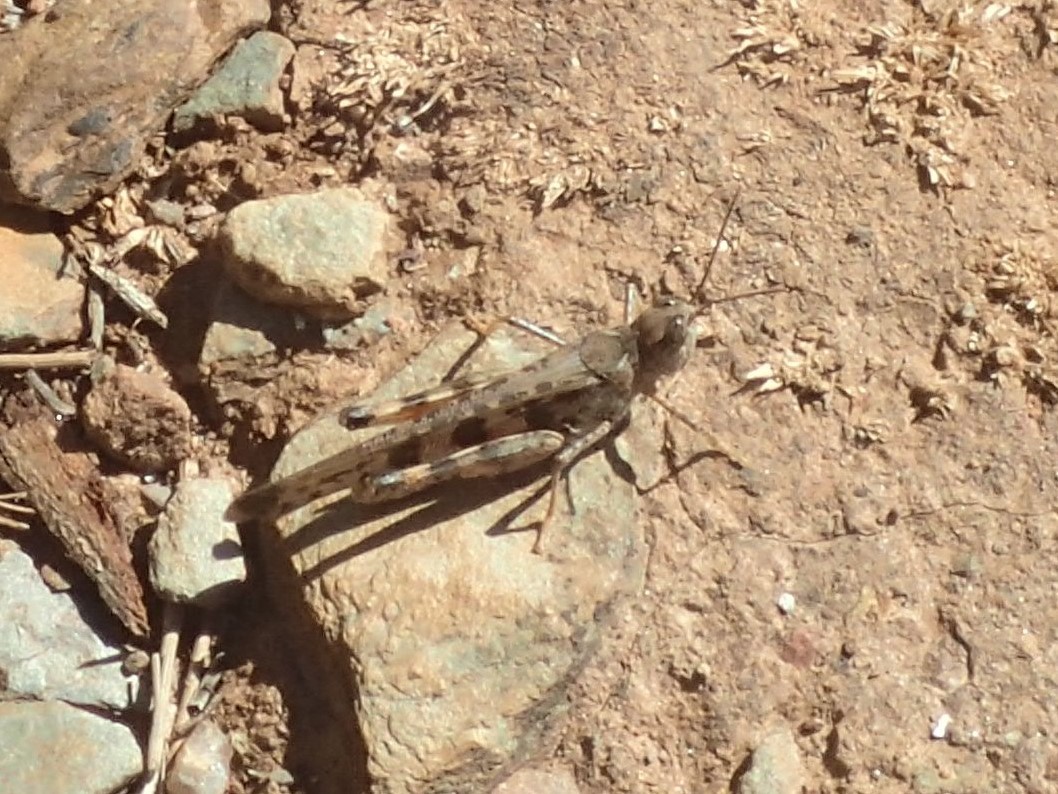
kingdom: Animalia
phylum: Arthropoda
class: Insecta
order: Orthoptera
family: Acrididae
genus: Chortoicetes
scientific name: Chortoicetes terminifera
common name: Australian plague locust
